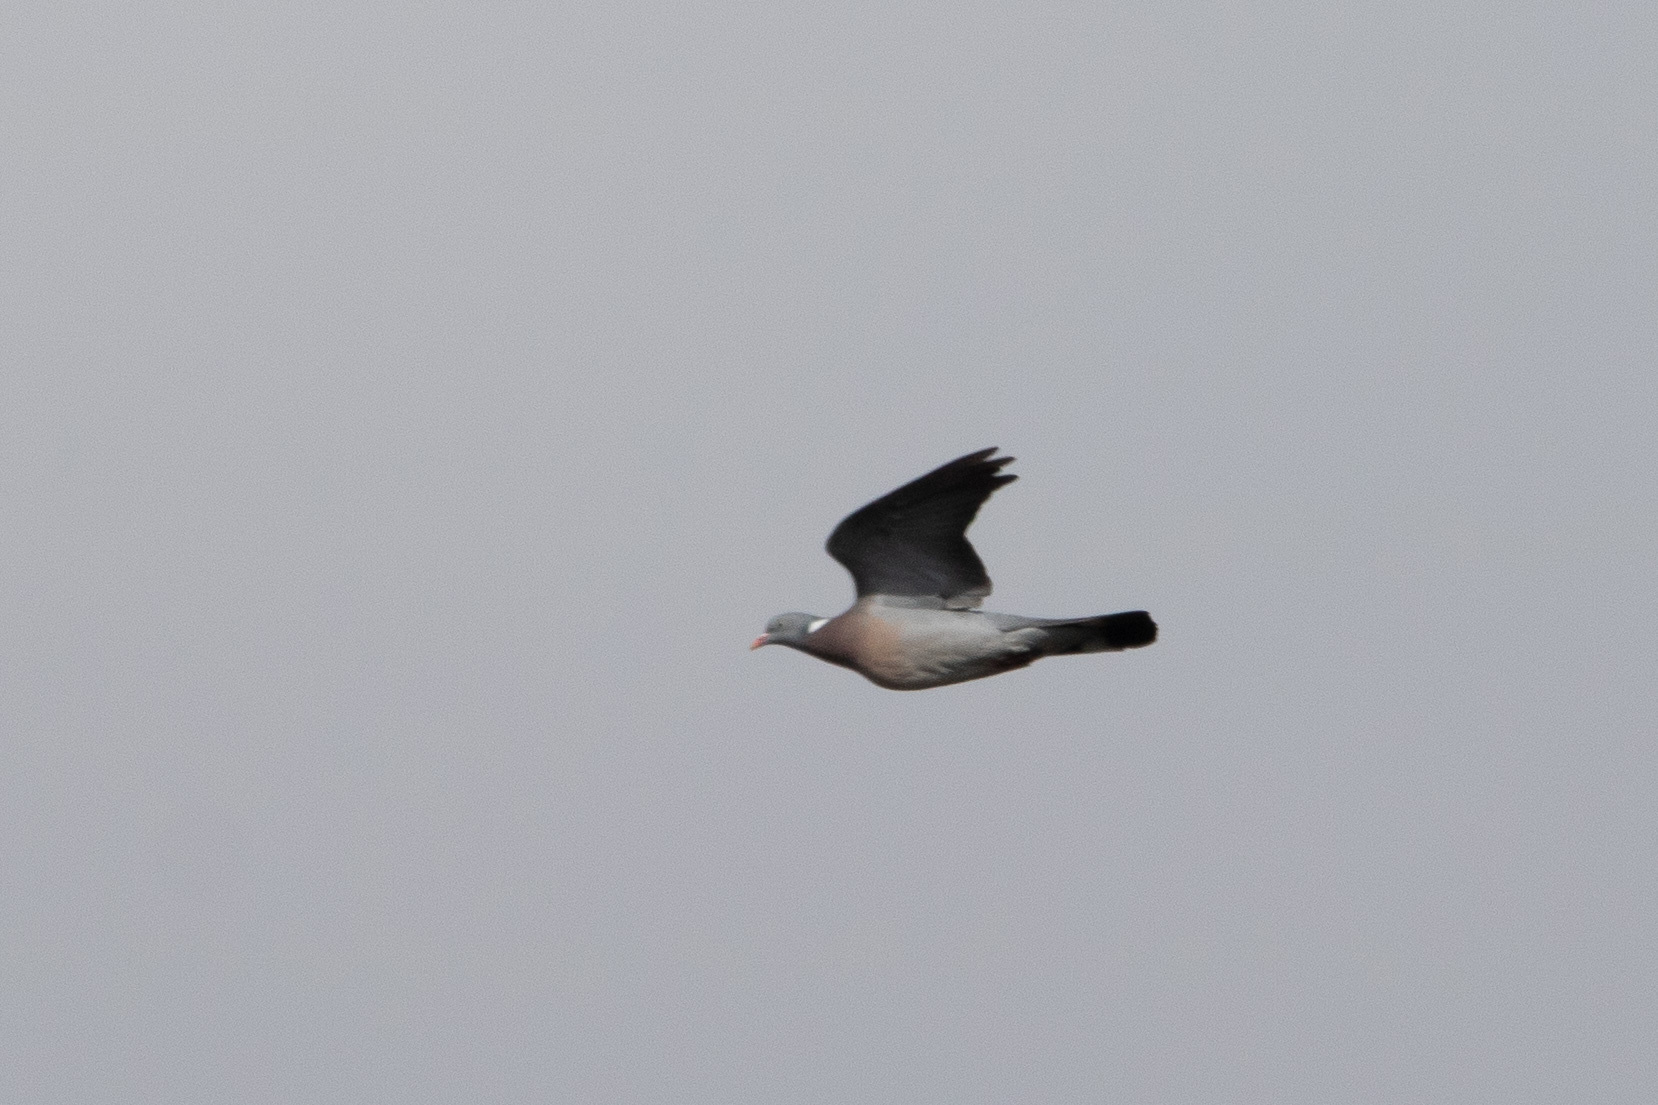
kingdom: Animalia
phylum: Chordata
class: Aves
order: Columbiformes
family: Columbidae
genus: Columba
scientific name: Columba palumbus
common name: Common wood pigeon
